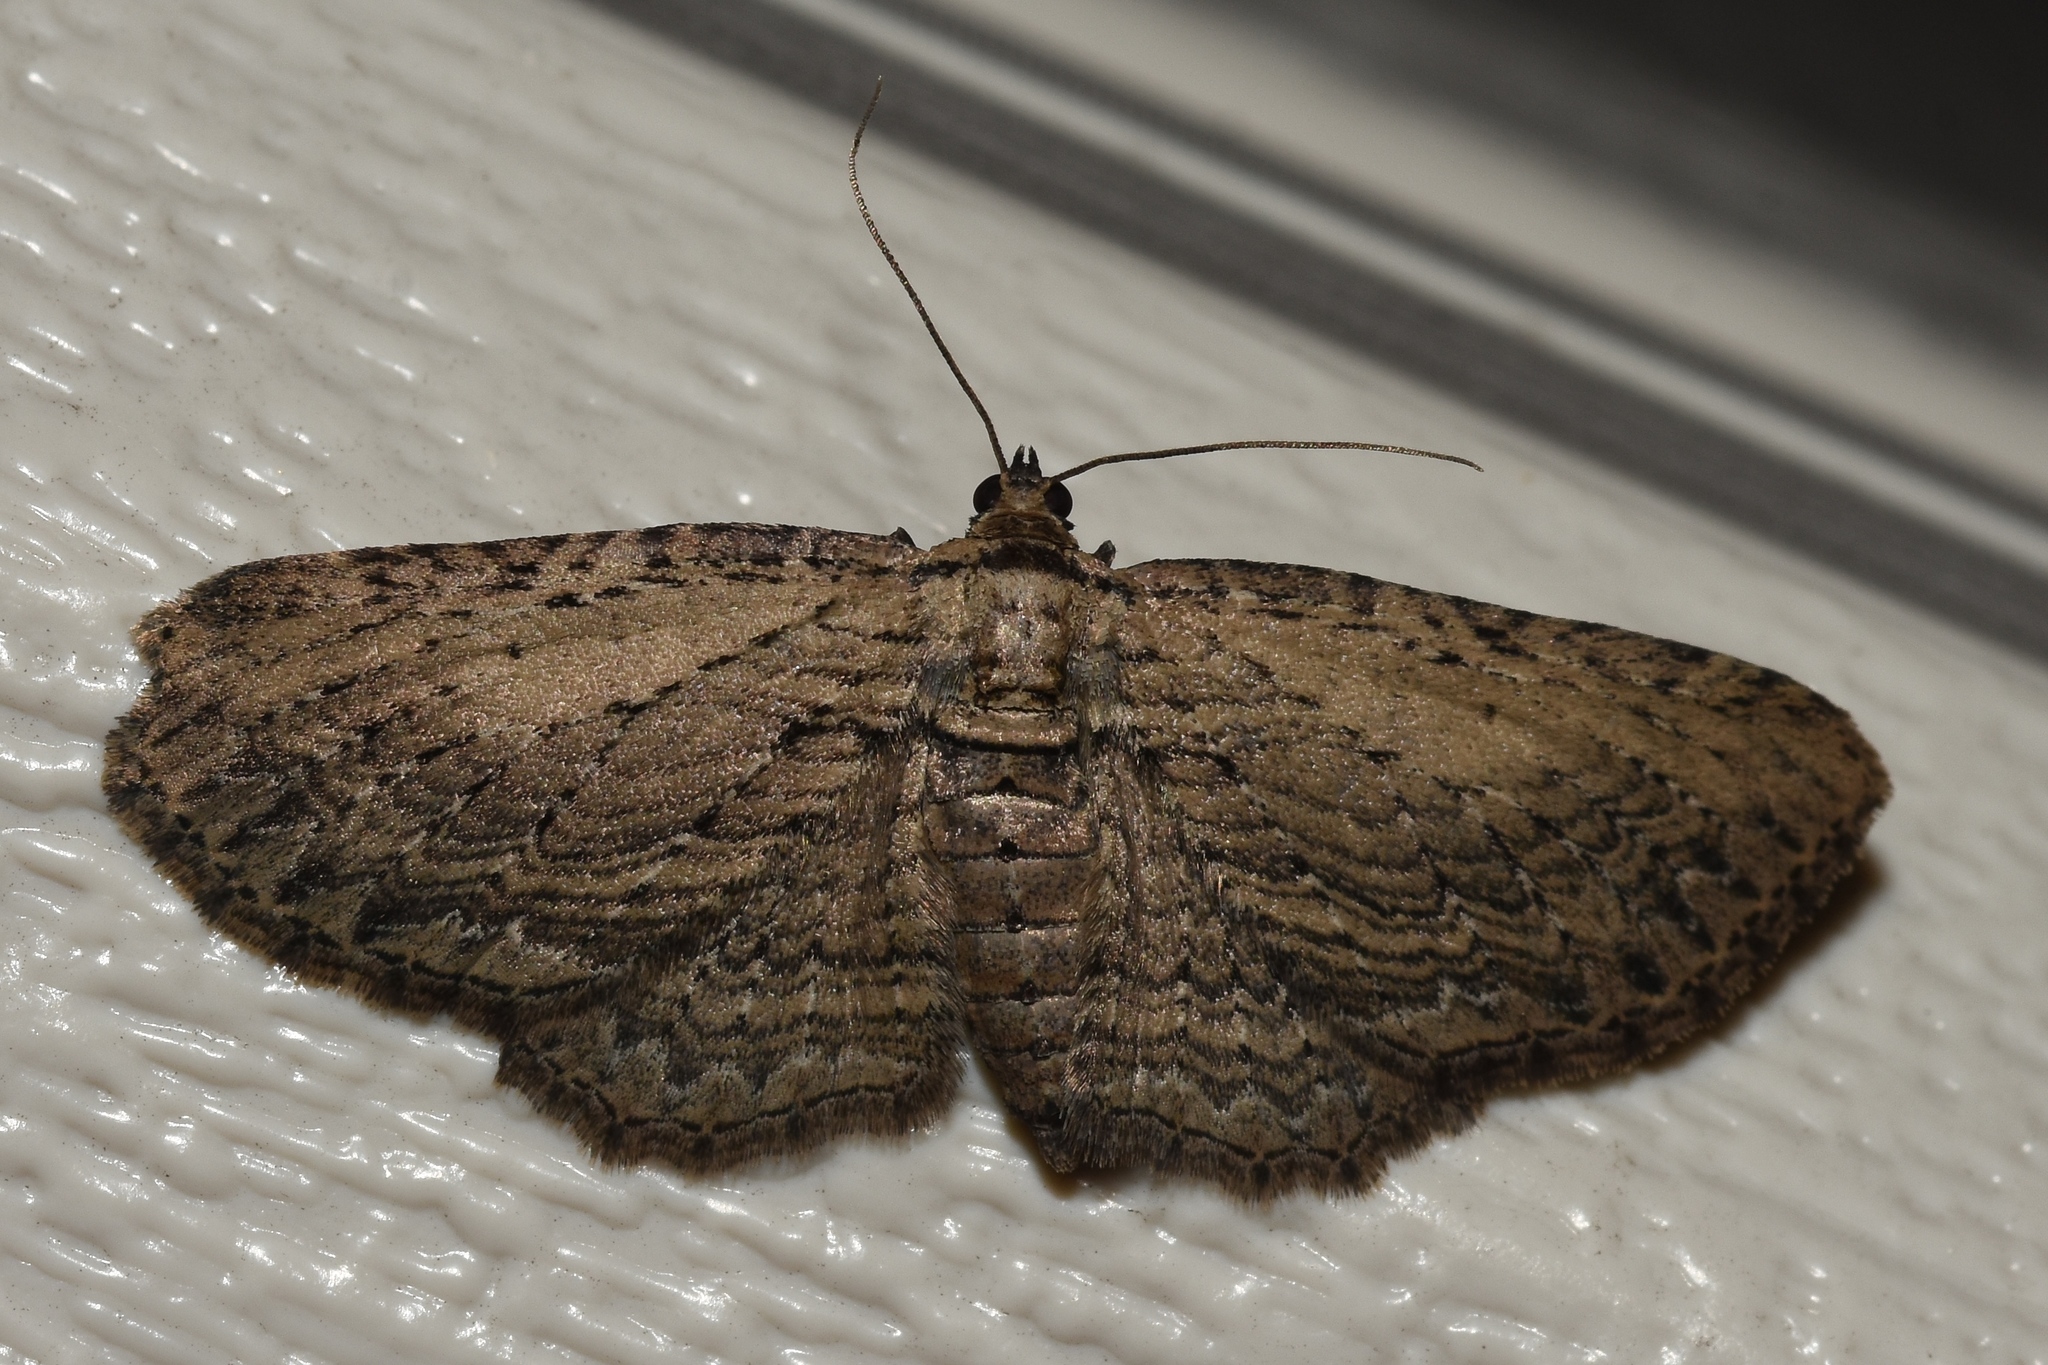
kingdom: Animalia
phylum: Arthropoda
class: Insecta
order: Lepidoptera
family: Geometridae
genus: Horisme
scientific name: Horisme intestinata
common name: Brown bark carpet
